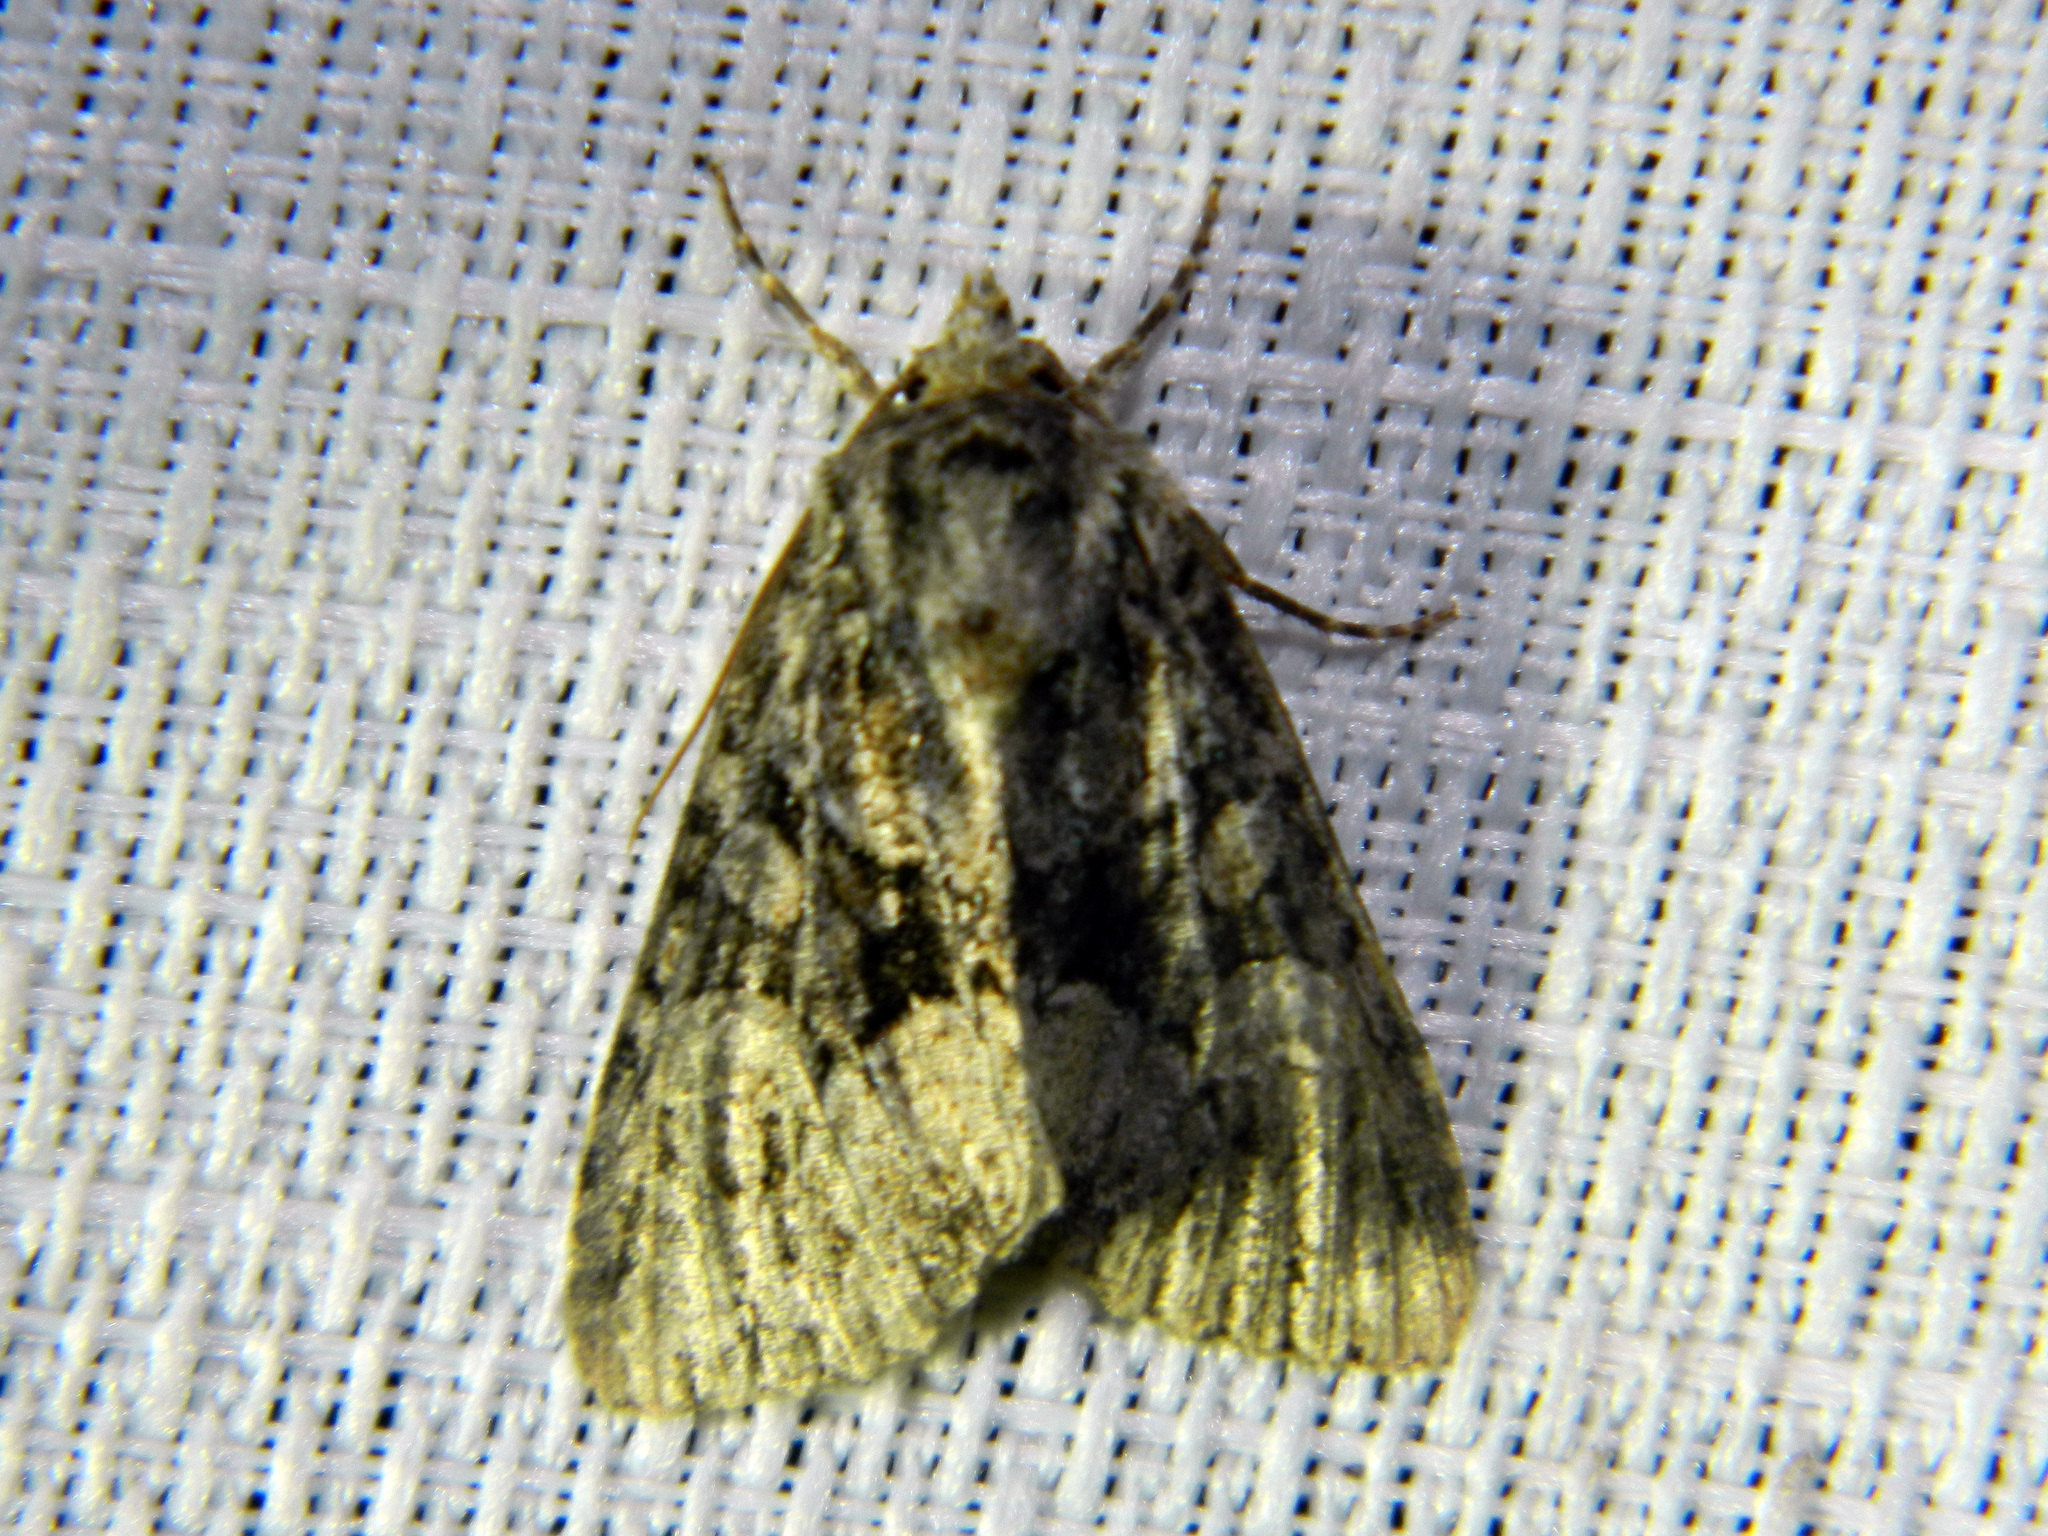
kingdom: Animalia
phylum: Arthropoda
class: Insecta
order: Lepidoptera
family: Noctuidae
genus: Platypolia
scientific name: Platypolia mactata
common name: Adorable brocade moth
